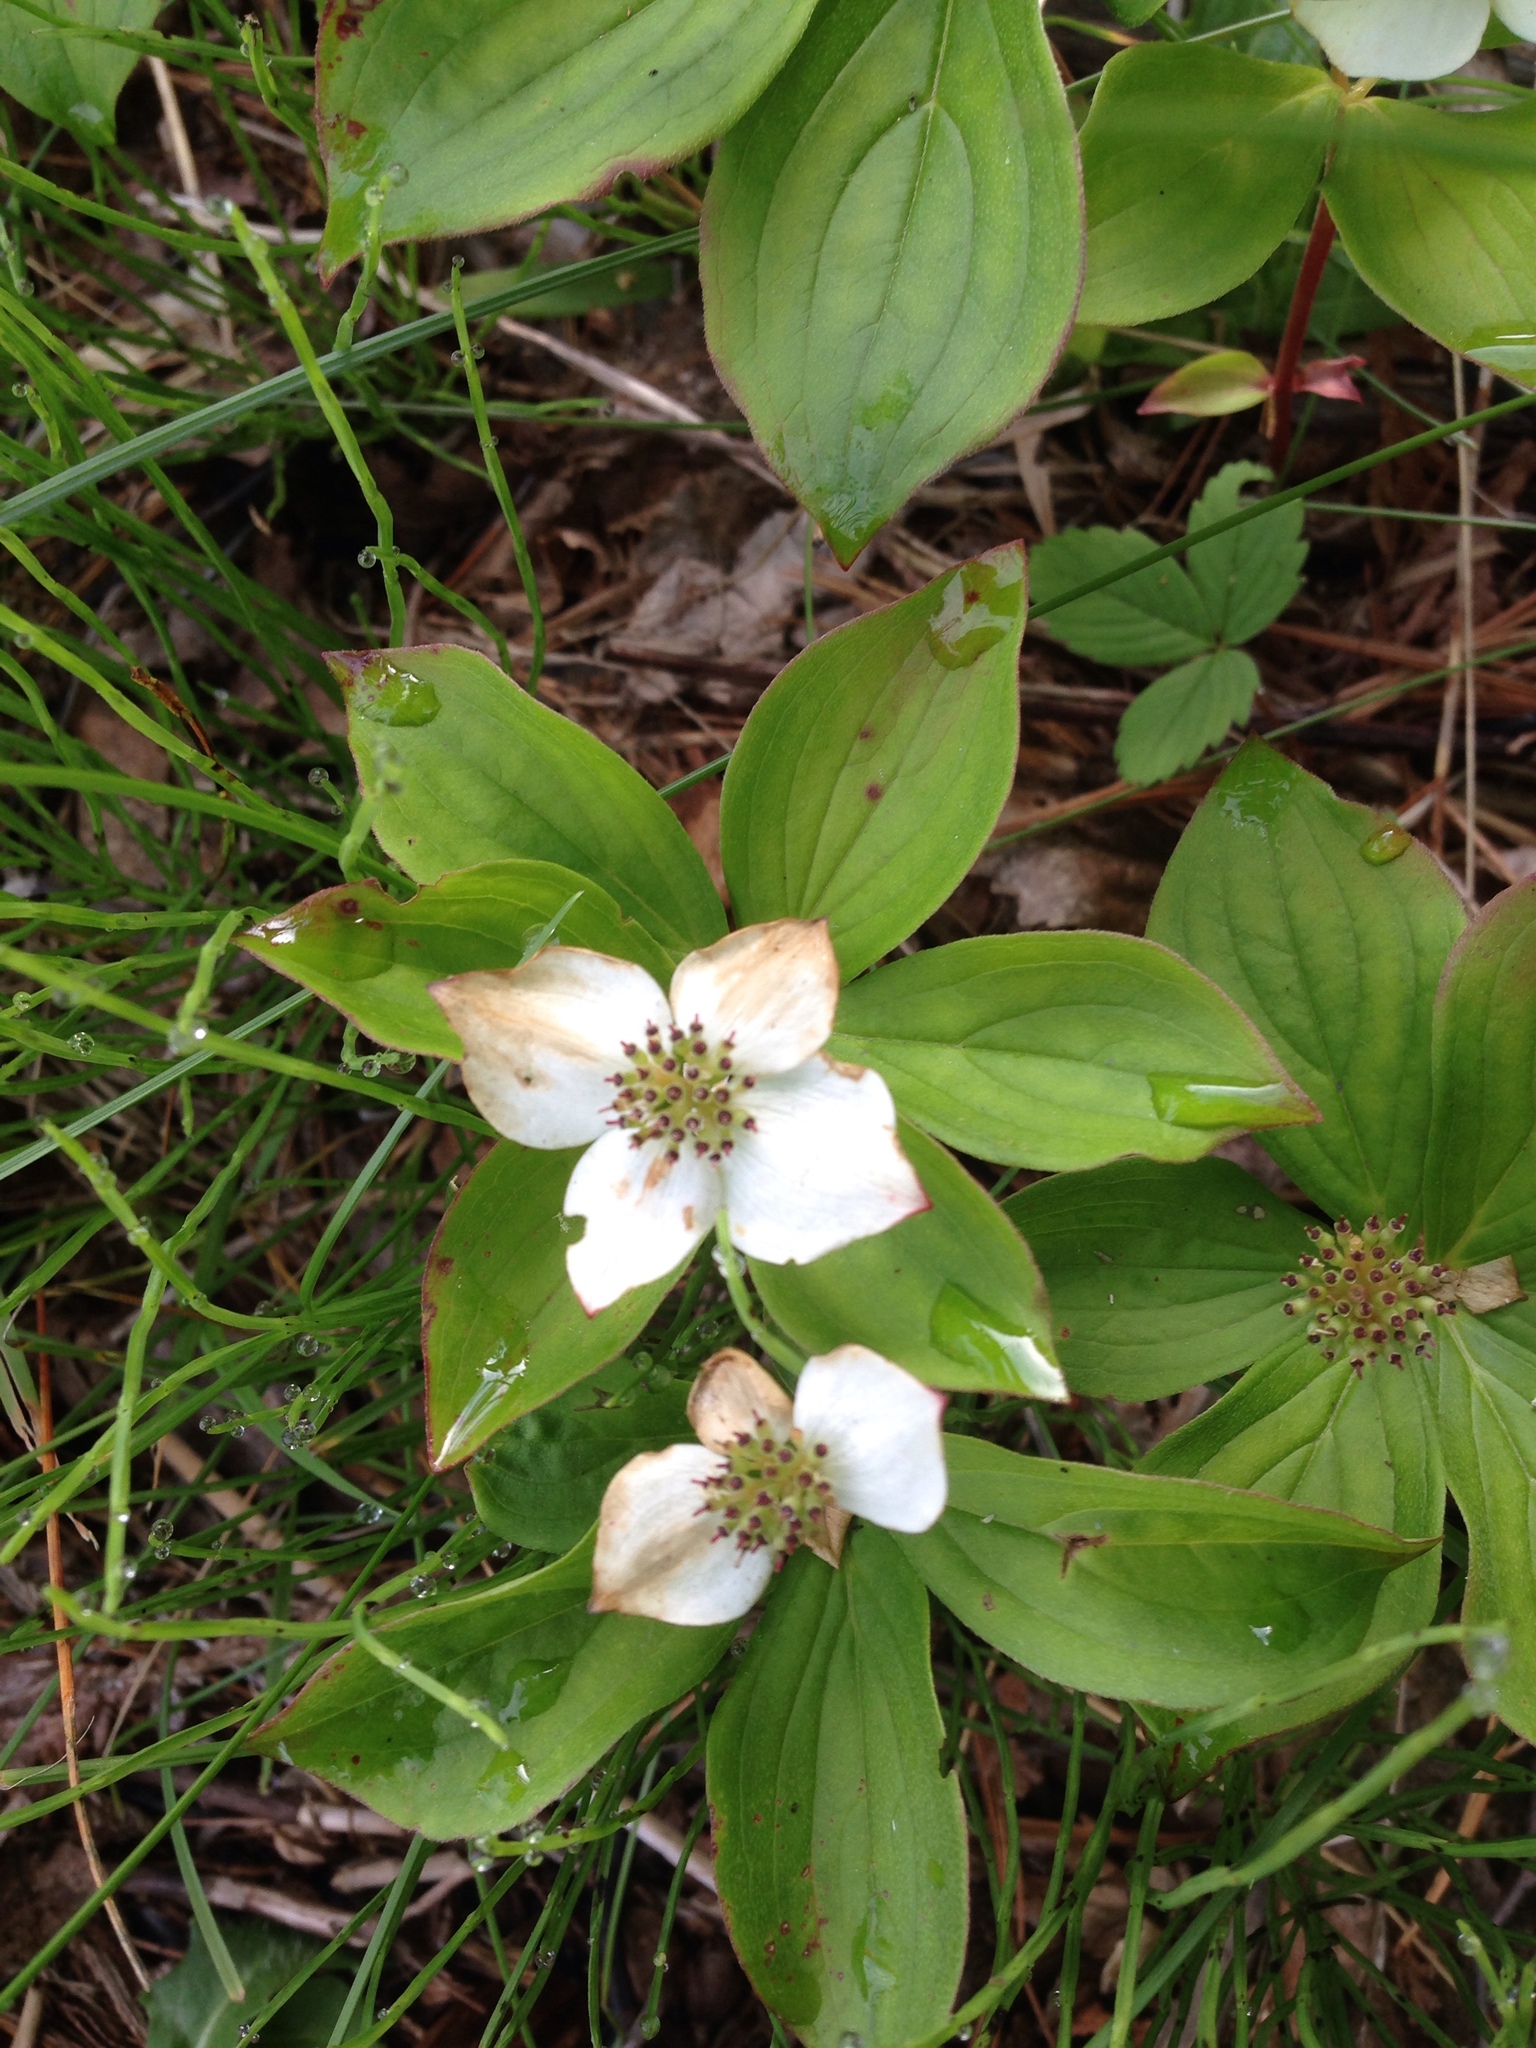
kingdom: Plantae
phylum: Tracheophyta
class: Magnoliopsida
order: Cornales
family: Cornaceae
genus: Cornus
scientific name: Cornus canadensis
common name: Creeping dogwood
